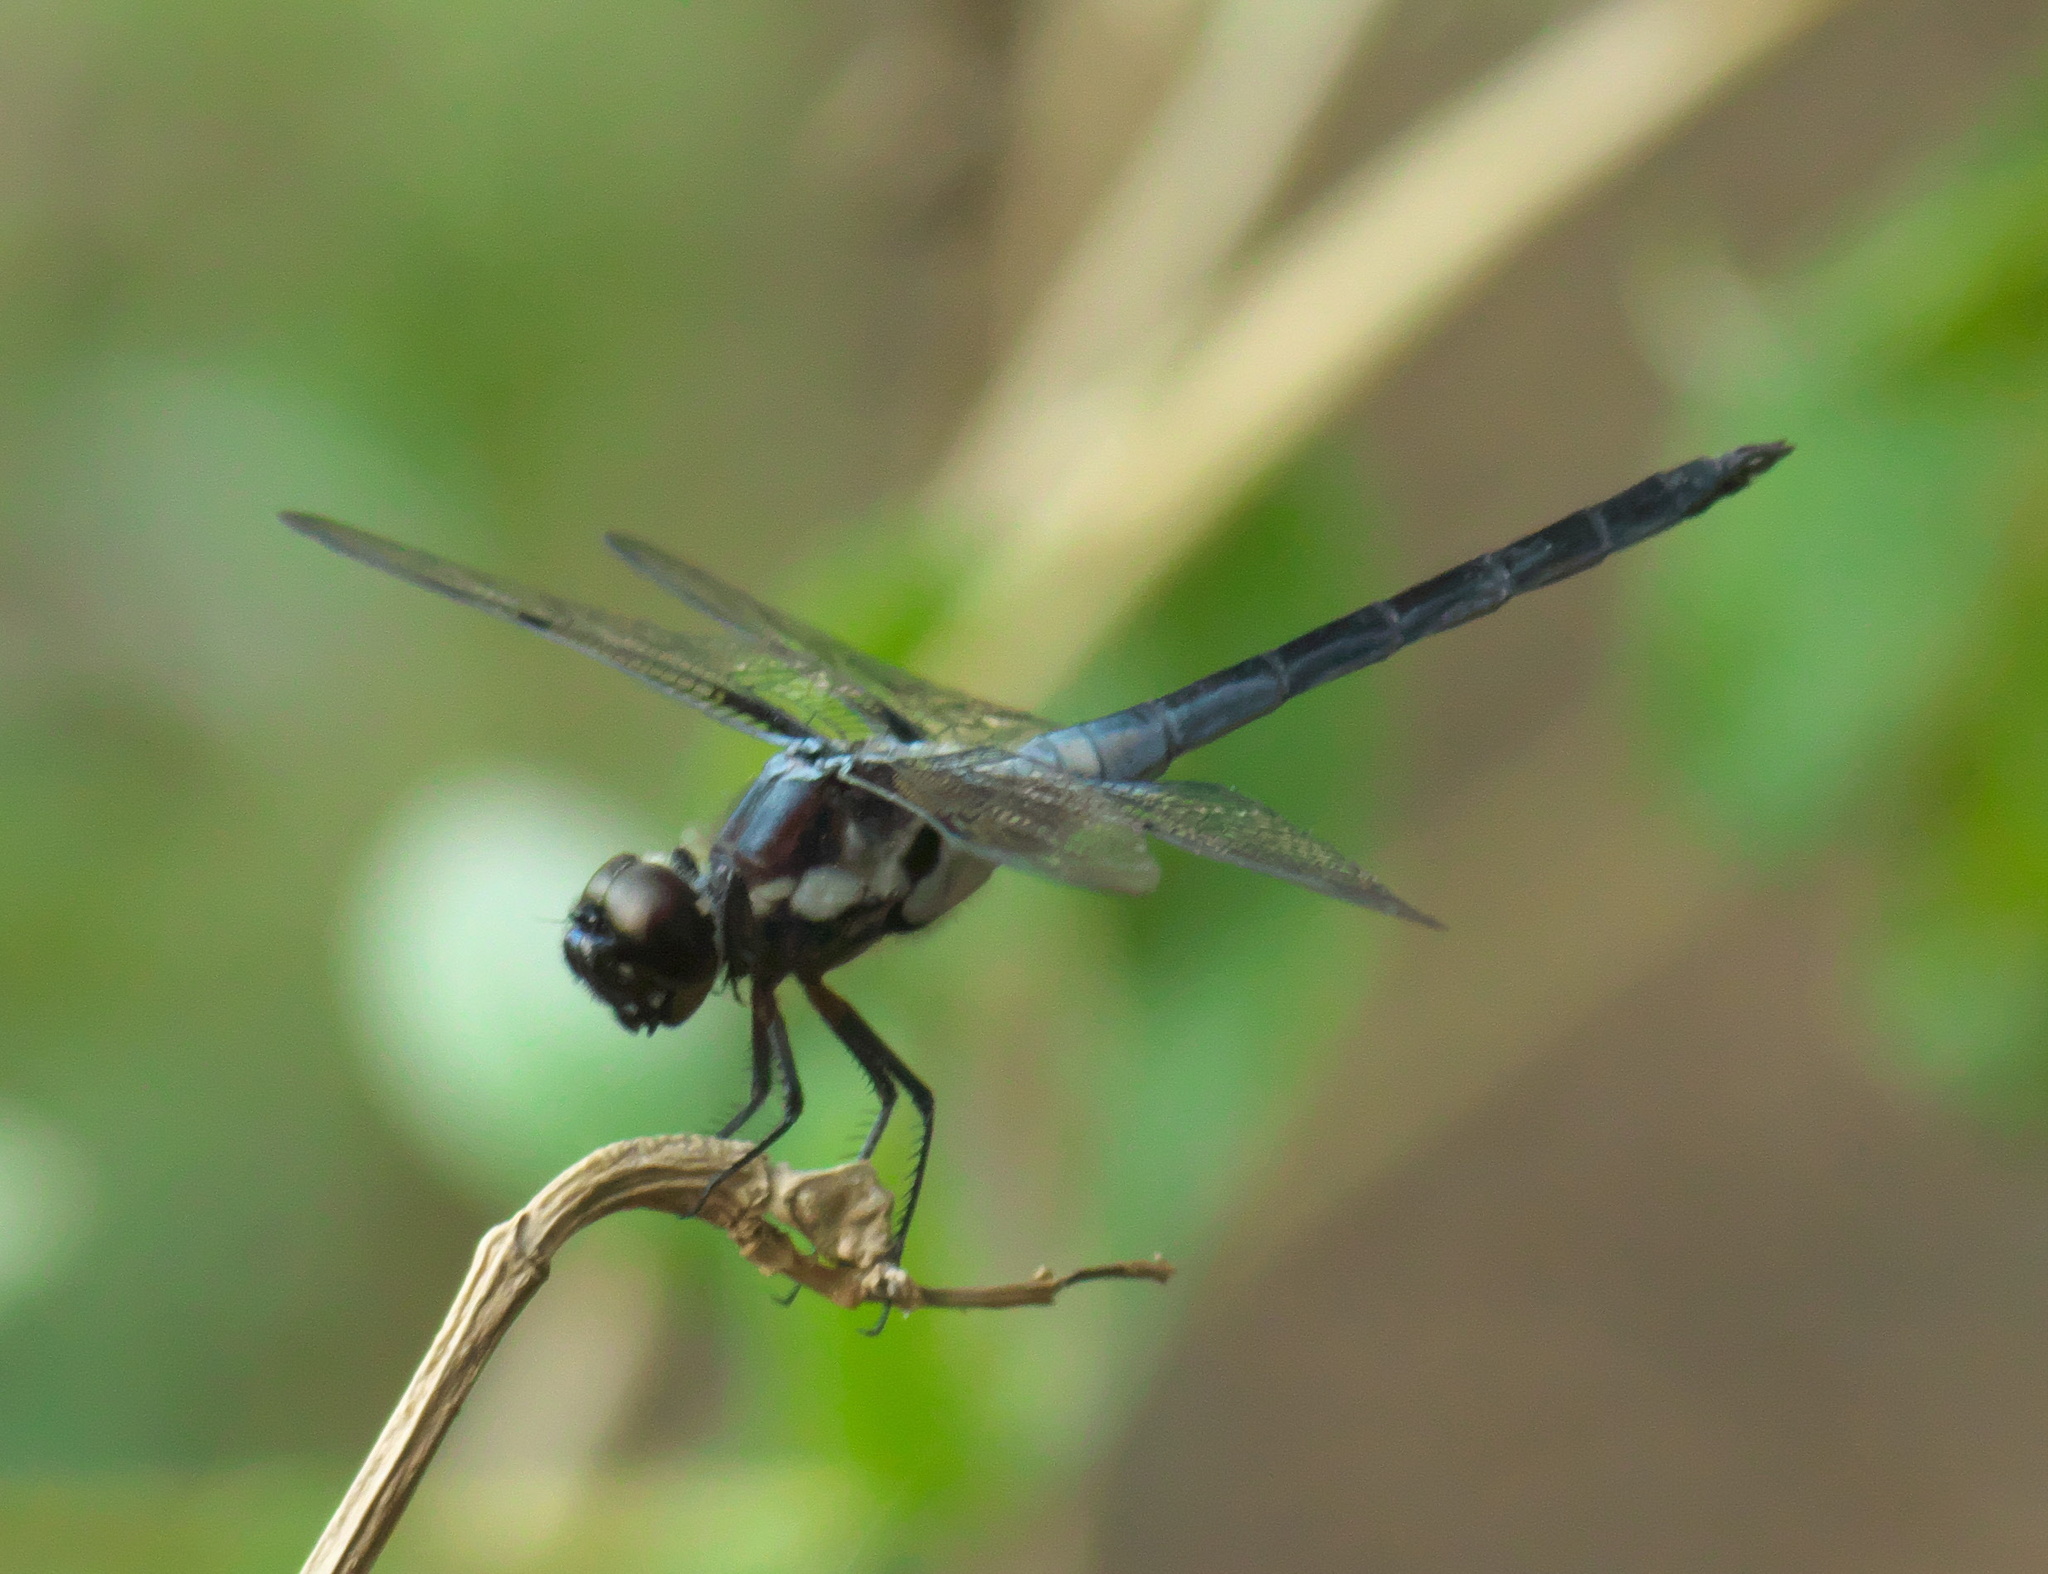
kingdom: Animalia
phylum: Arthropoda
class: Insecta
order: Odonata
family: Libellulidae
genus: Libellula
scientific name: Libellula axilena
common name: Bar-winged skimmer
